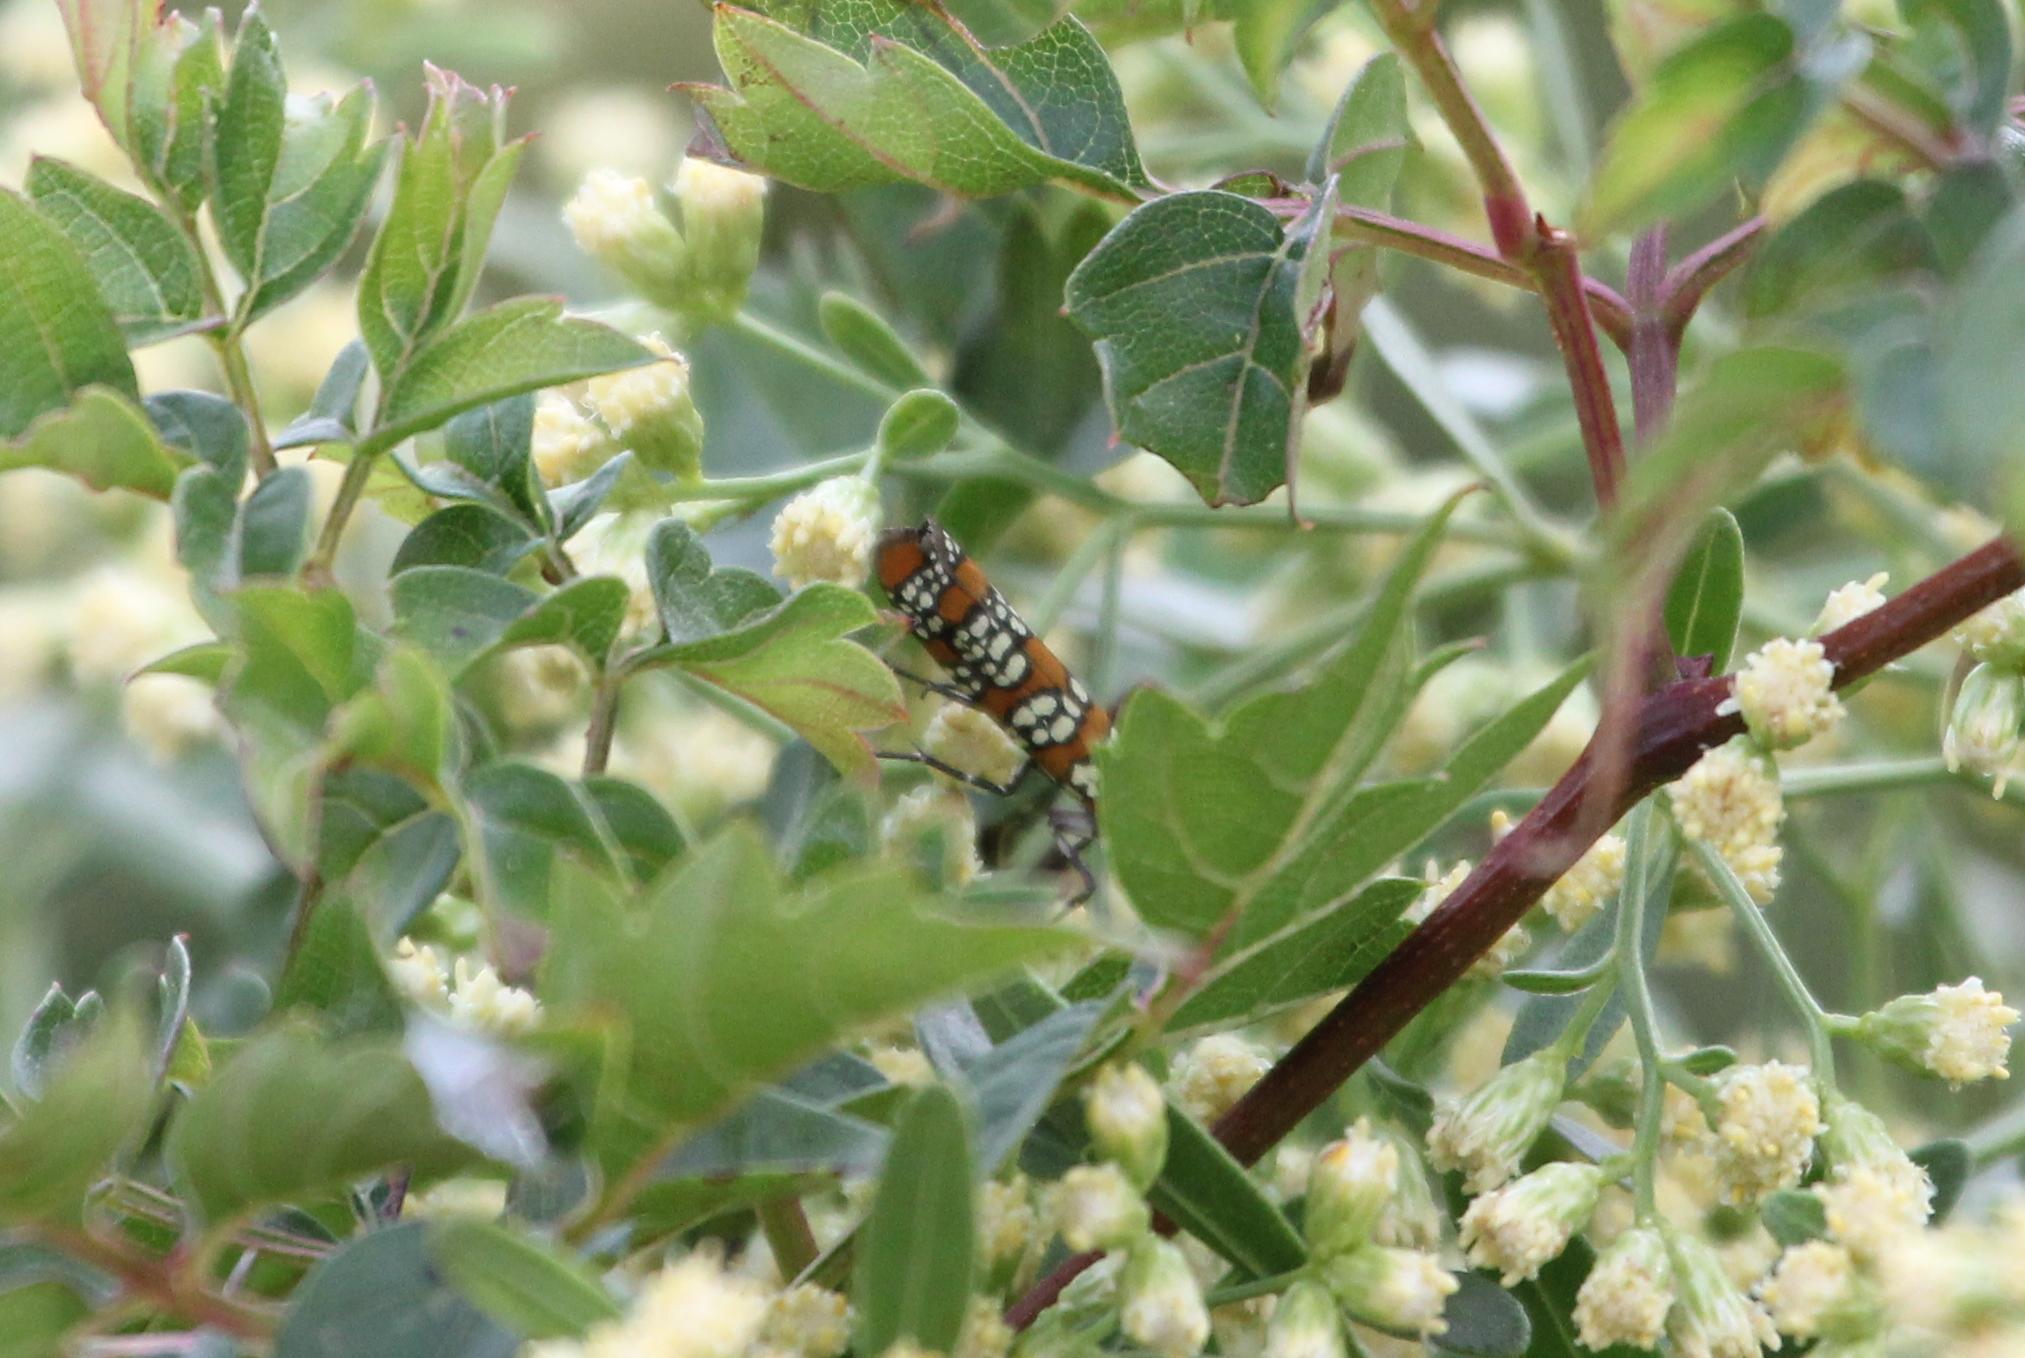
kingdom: Animalia
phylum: Arthropoda
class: Insecta
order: Lepidoptera
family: Attevidae
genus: Atteva
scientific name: Atteva punctella
